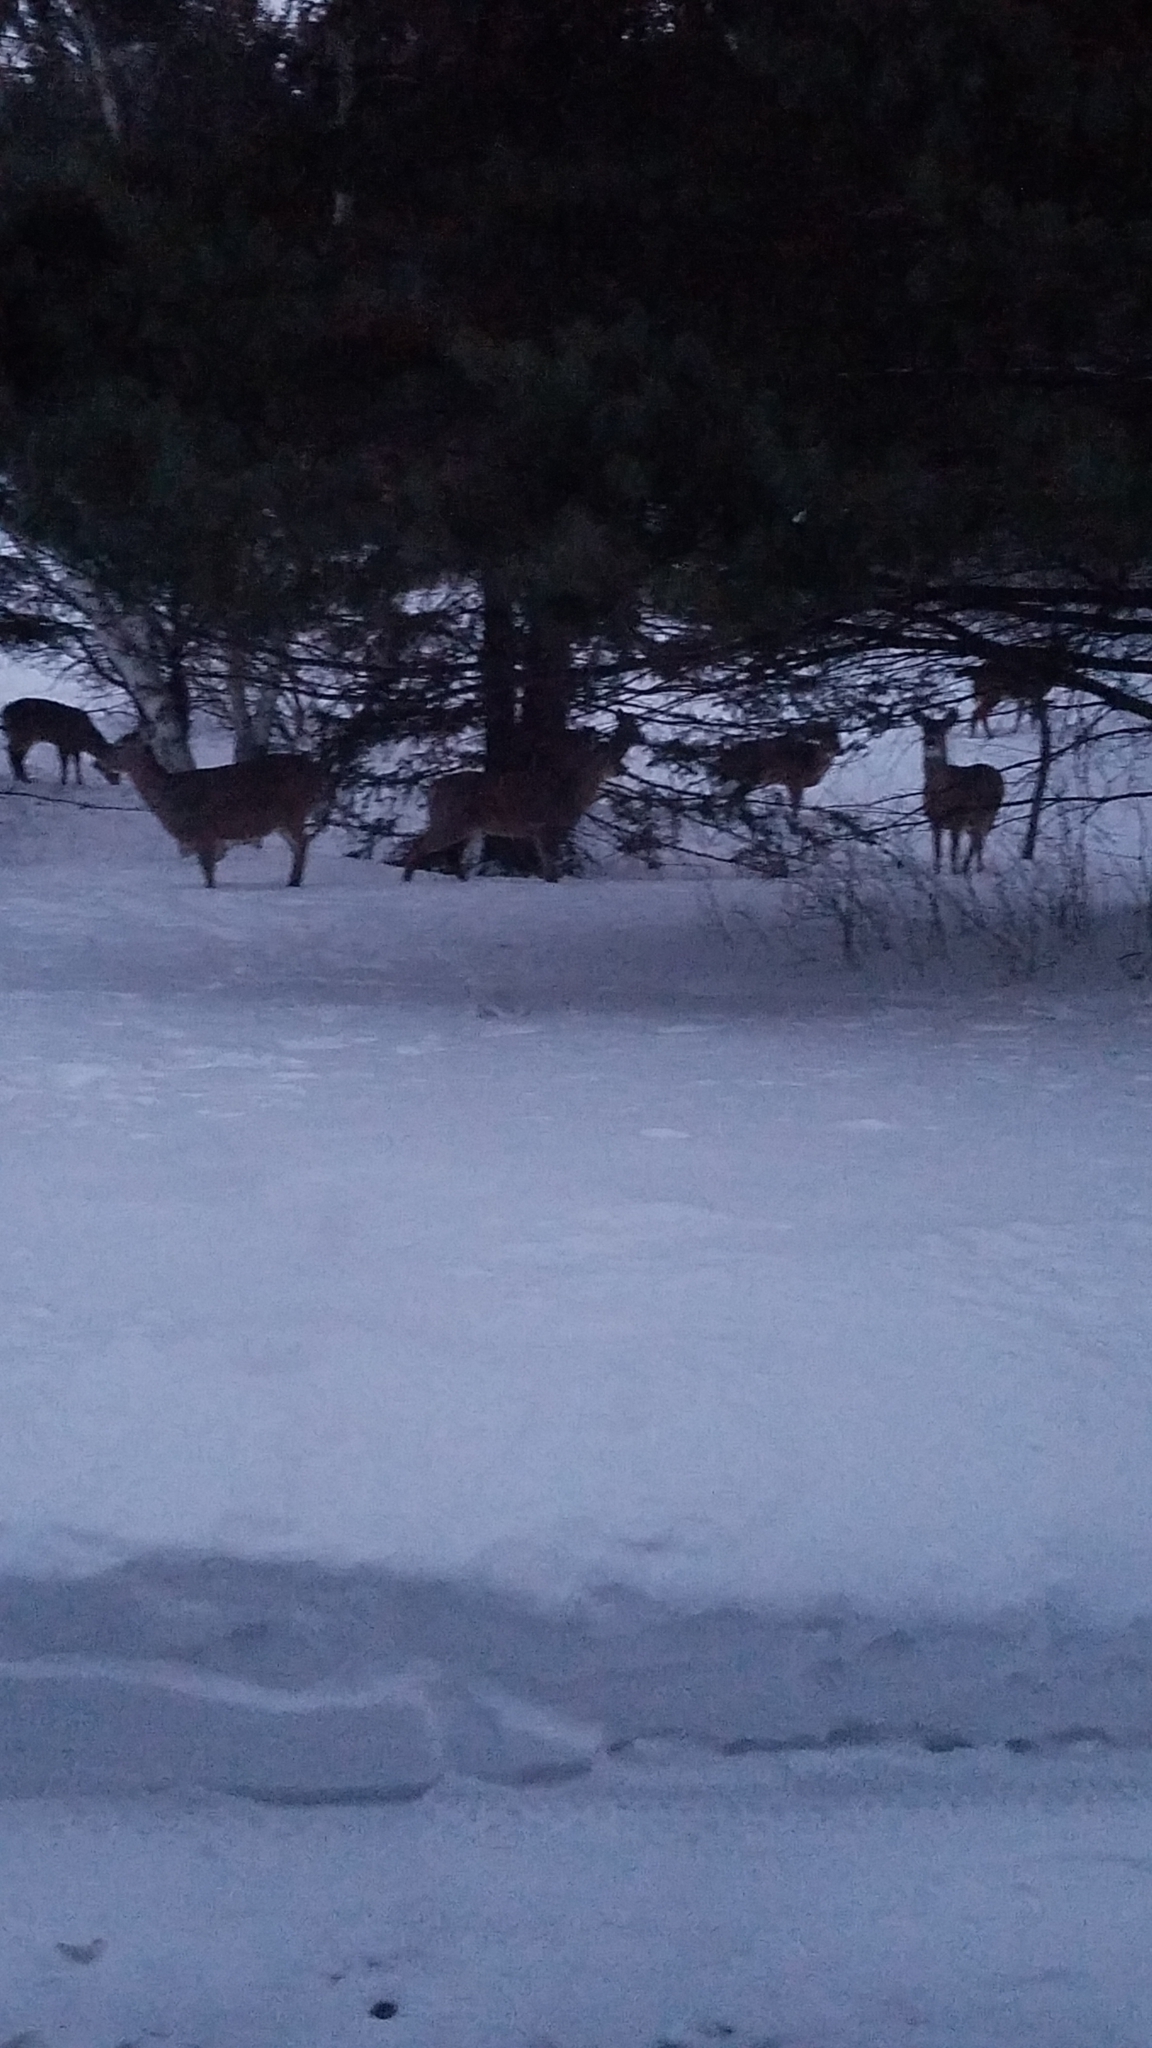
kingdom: Animalia
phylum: Chordata
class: Mammalia
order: Artiodactyla
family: Cervidae
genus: Odocoileus
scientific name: Odocoileus virginianus
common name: White-tailed deer
